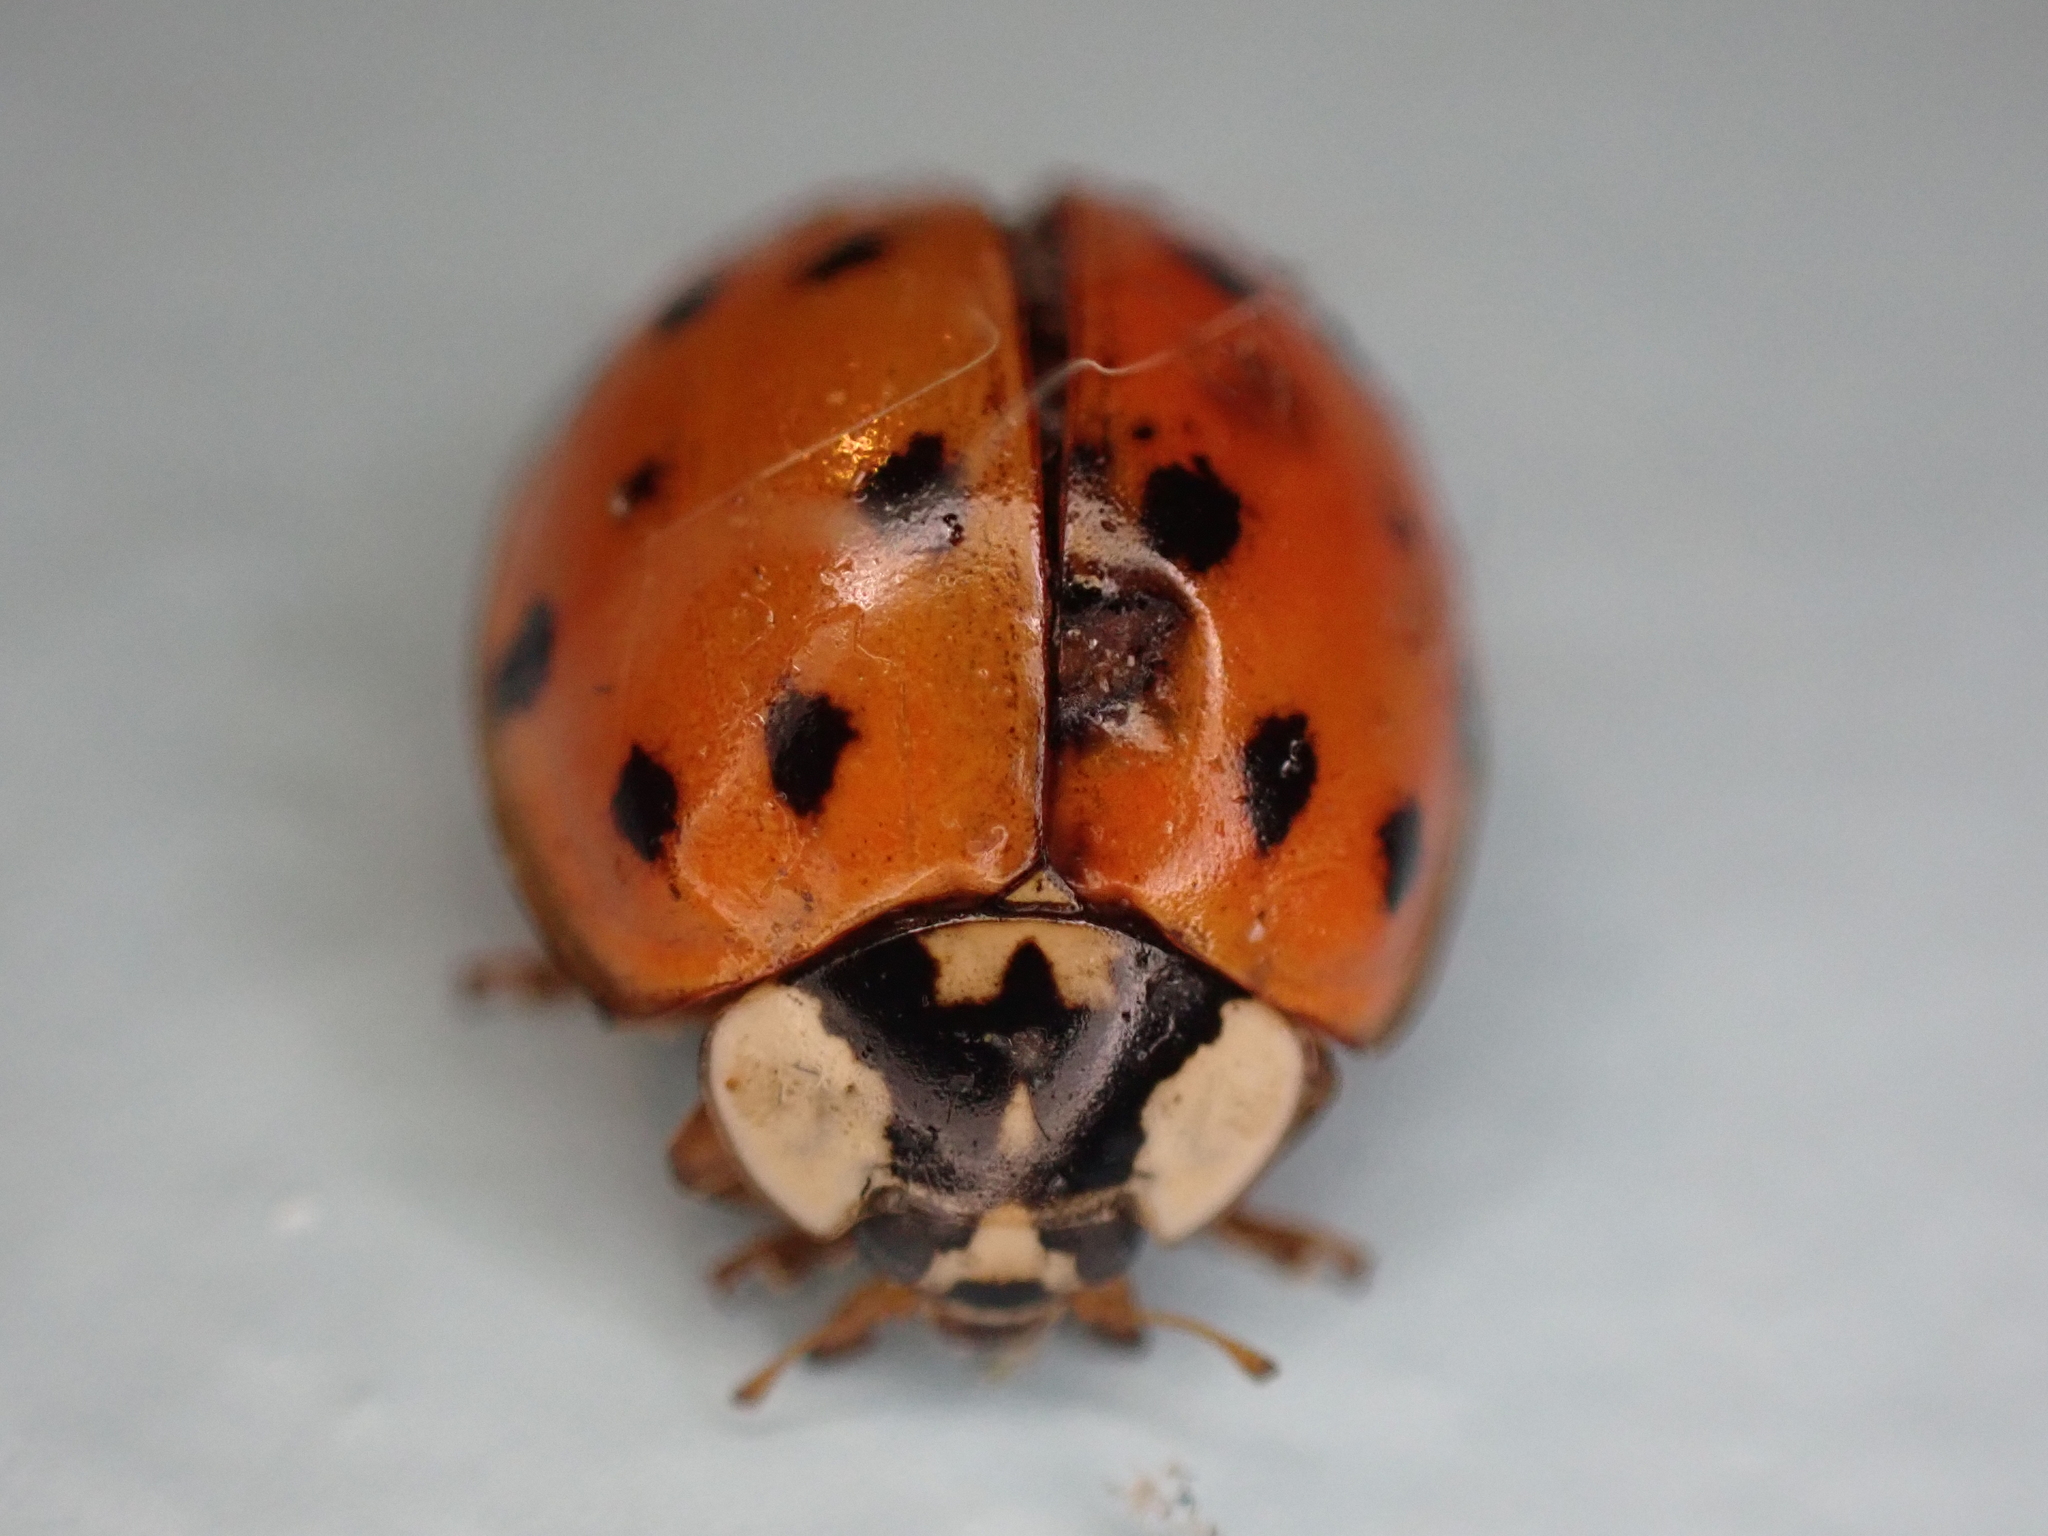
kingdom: Animalia
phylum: Arthropoda
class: Insecta
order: Coleoptera
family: Coccinellidae
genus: Harmonia
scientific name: Harmonia axyridis
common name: Harlequin ladybird
